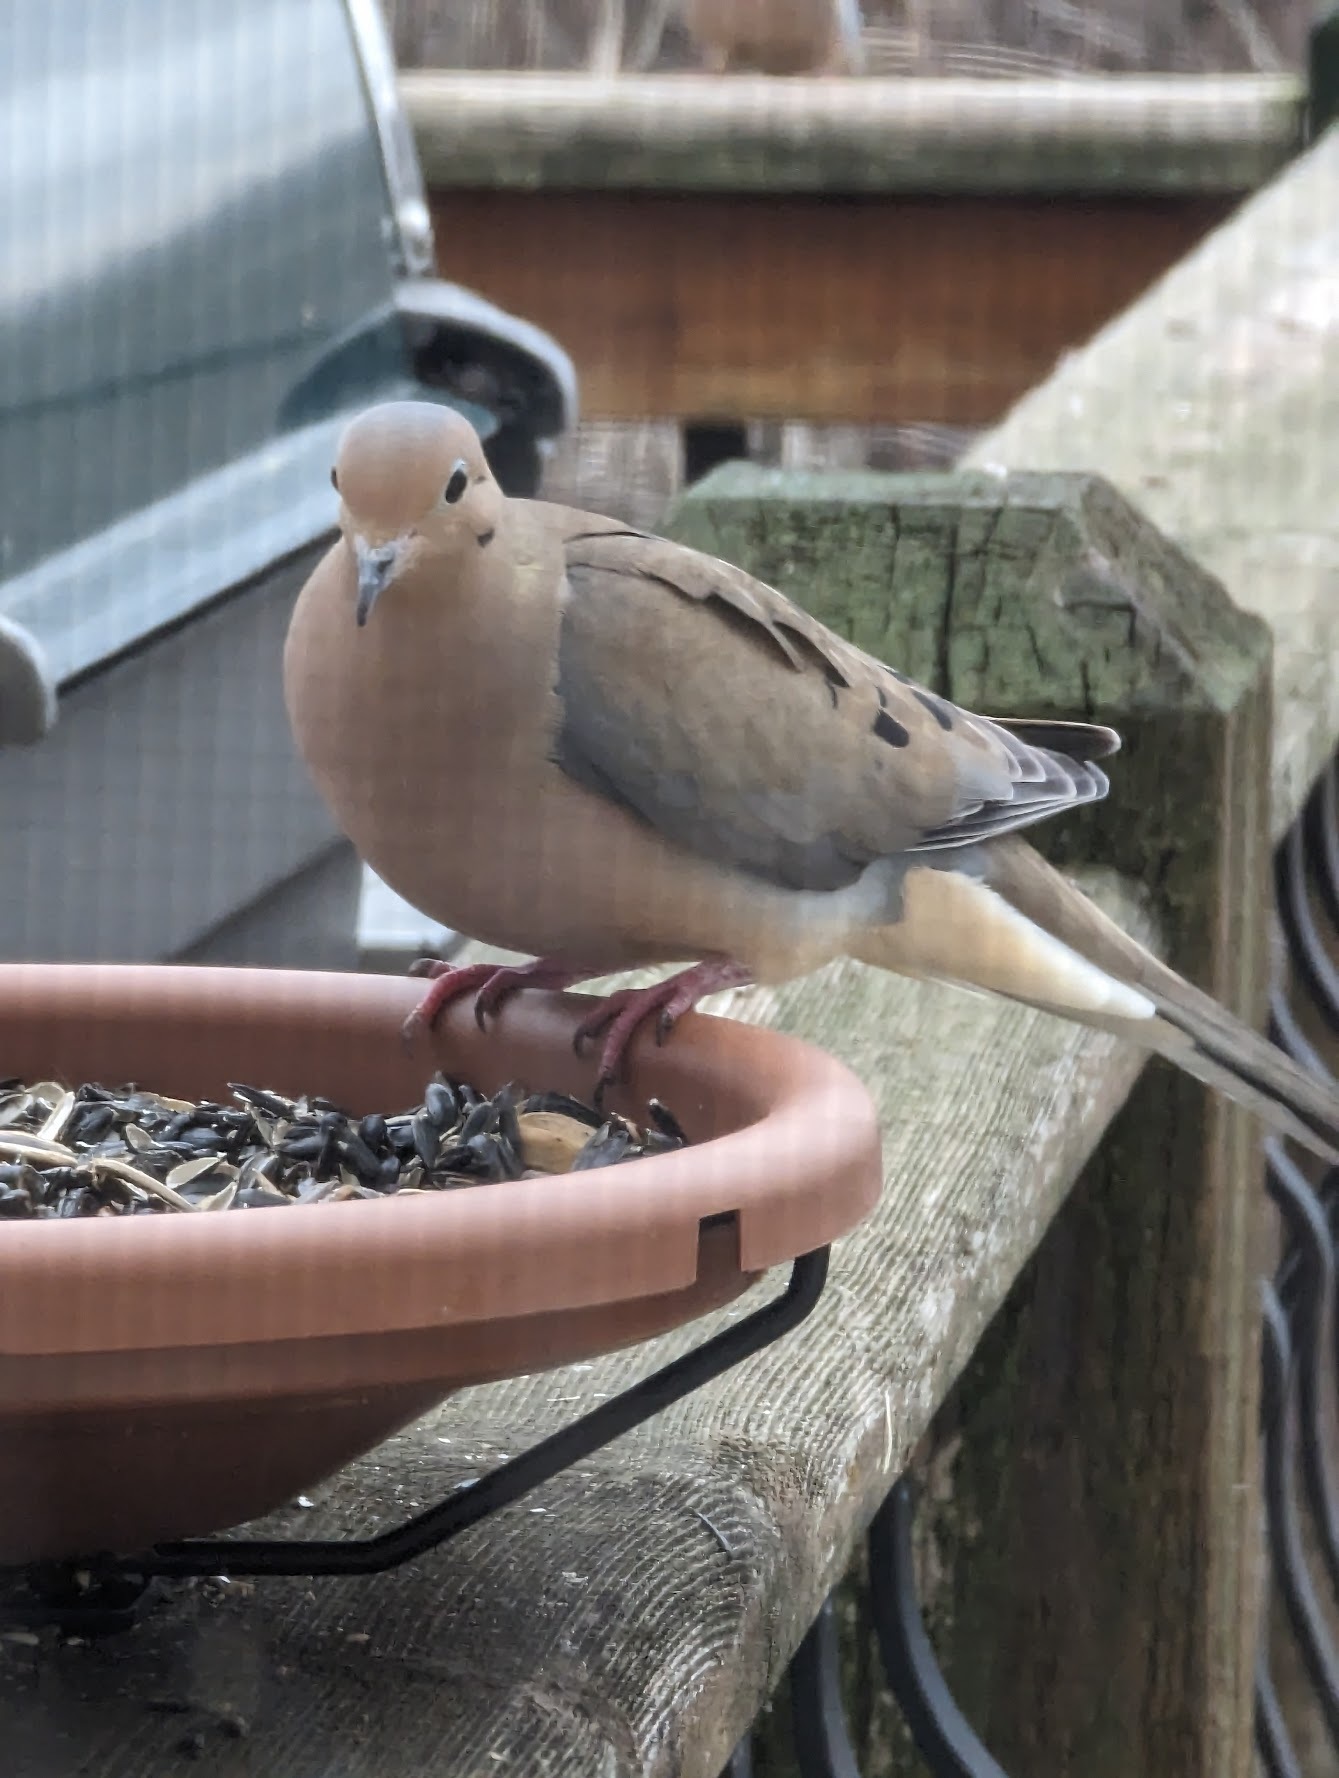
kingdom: Animalia
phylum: Chordata
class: Aves
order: Columbiformes
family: Columbidae
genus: Zenaida
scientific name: Zenaida macroura
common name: Mourning dove
